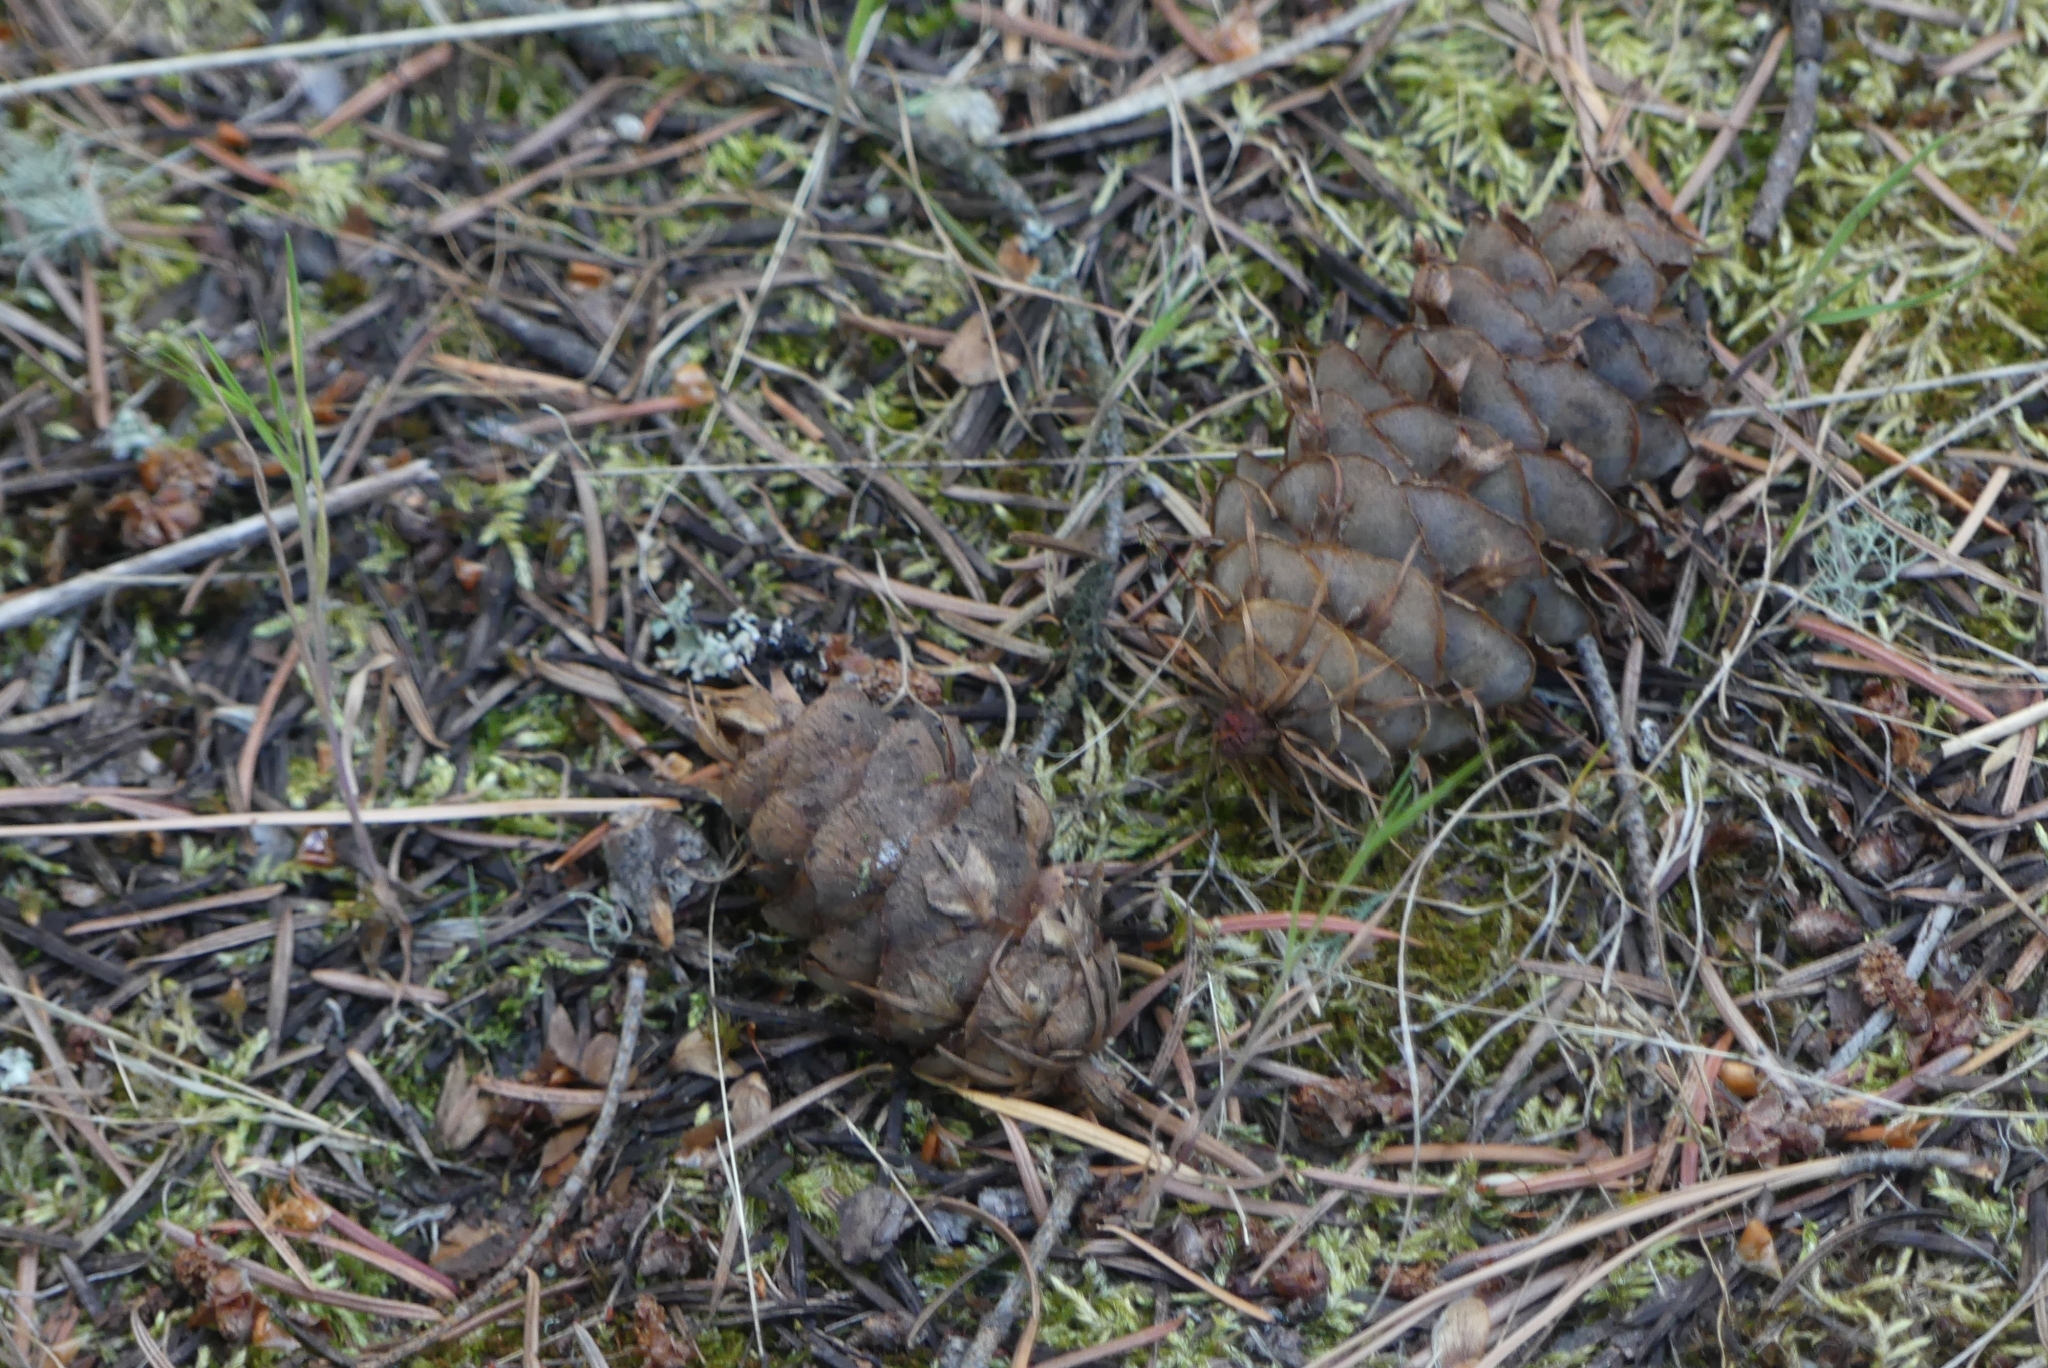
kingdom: Plantae
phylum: Tracheophyta
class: Pinopsida
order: Pinales
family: Pinaceae
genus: Pseudotsuga
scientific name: Pseudotsuga menziesii
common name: Douglas fir
